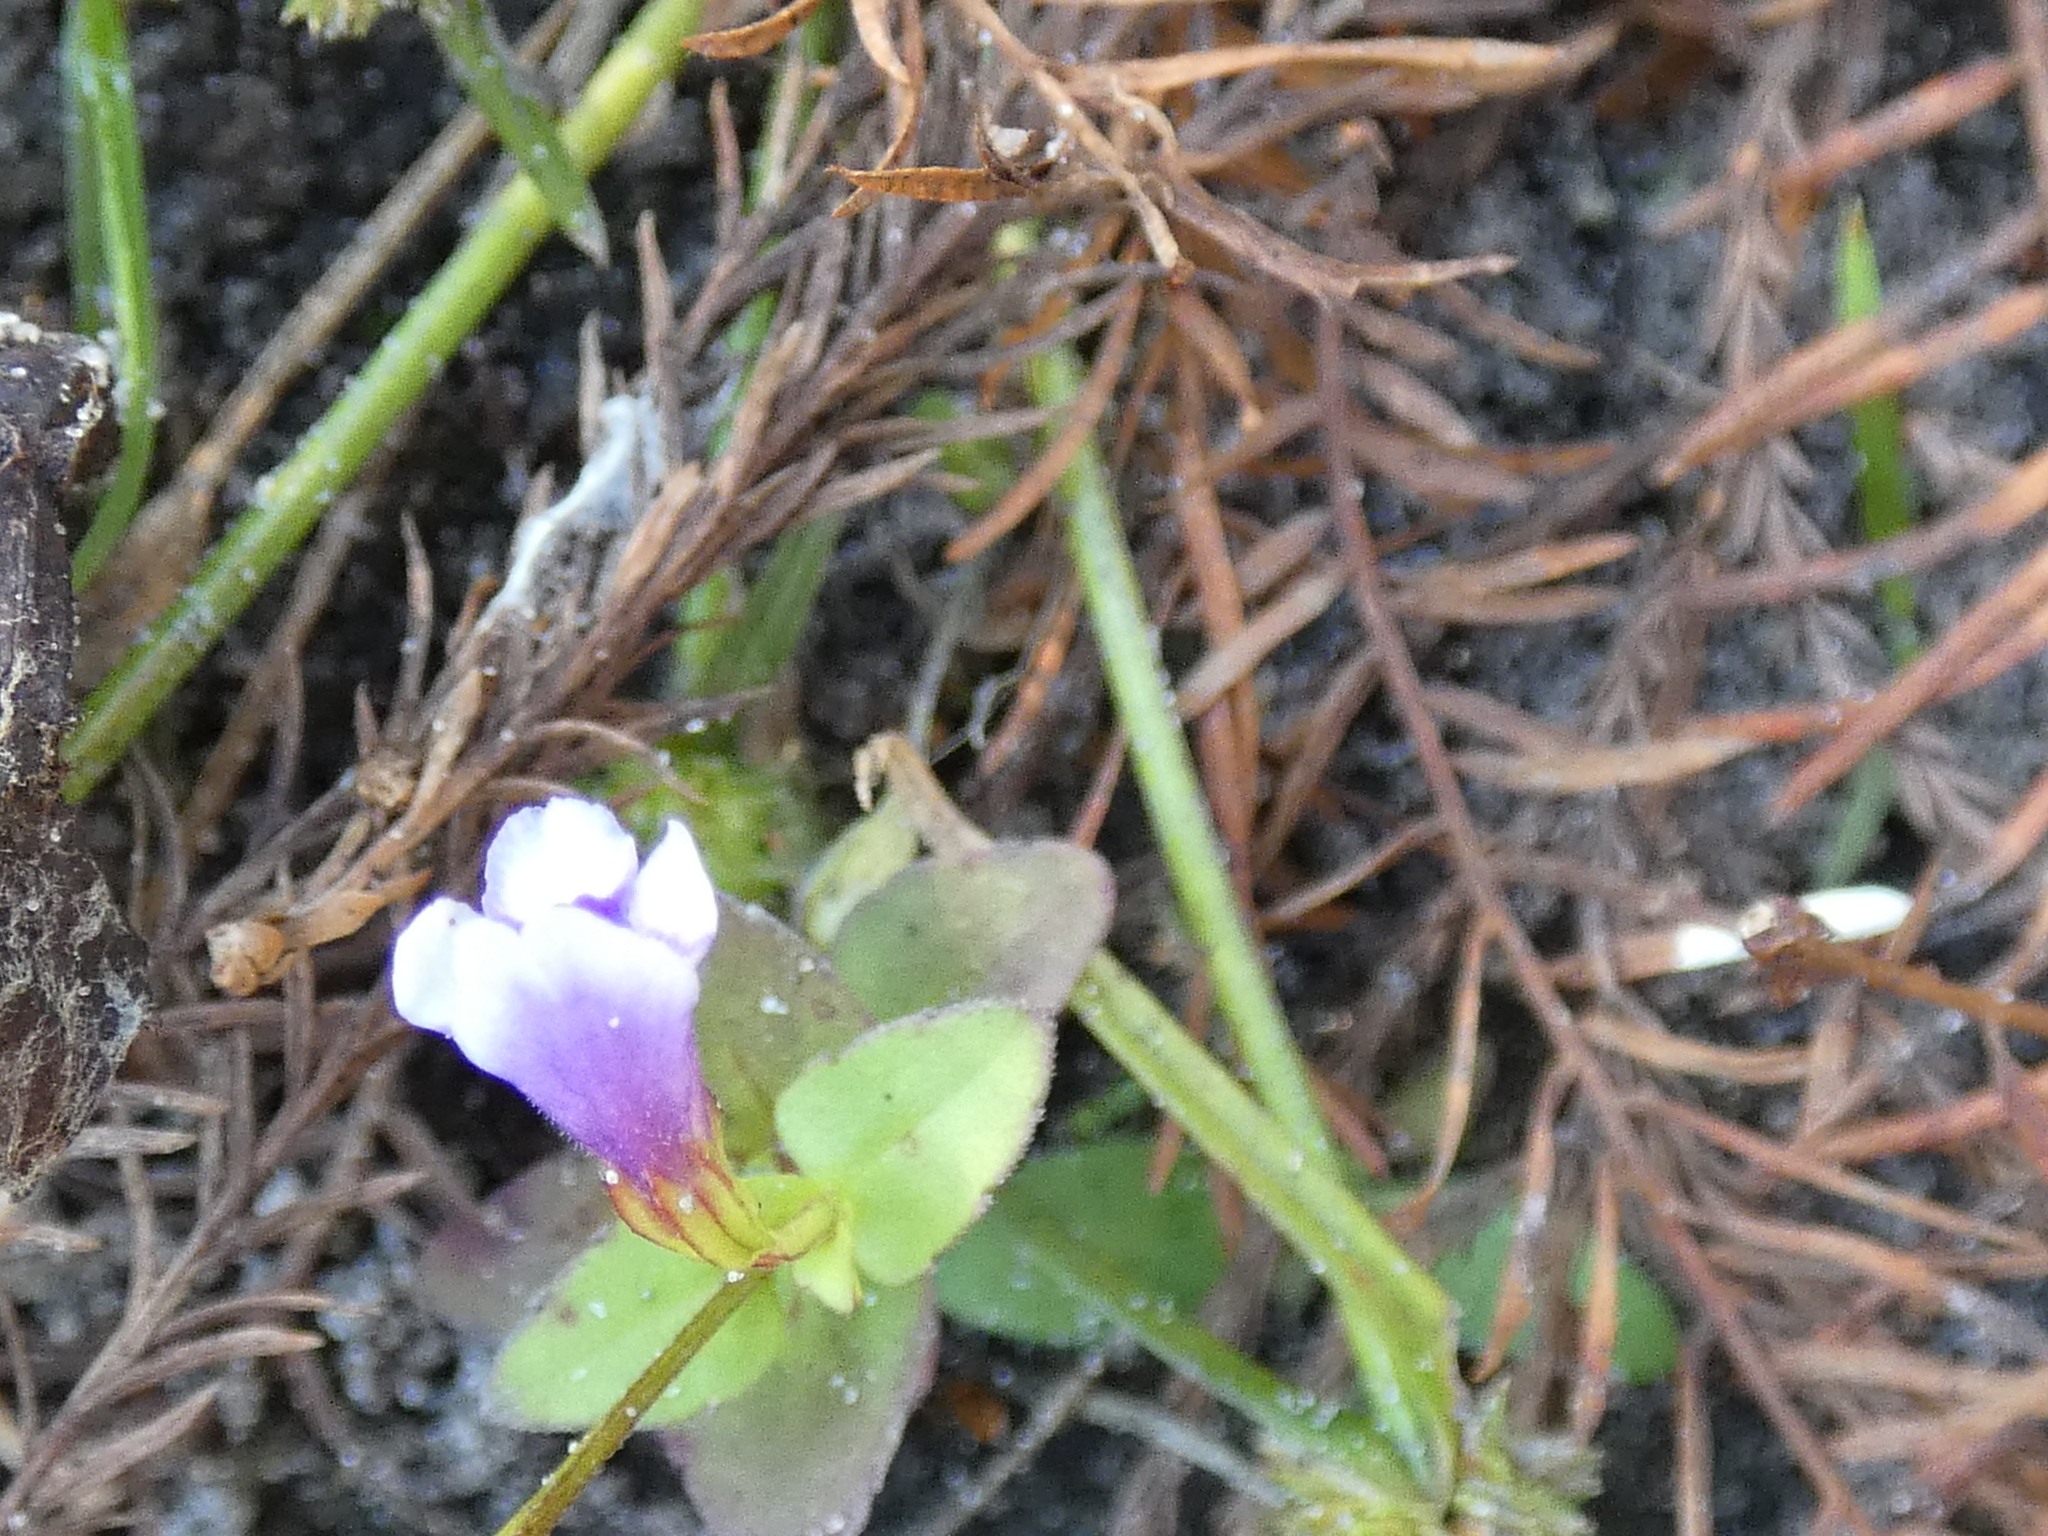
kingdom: Plantae
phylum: Tracheophyta
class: Magnoliopsida
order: Lamiales
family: Linderniaceae
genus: Torenia
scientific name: Torenia crustacea
